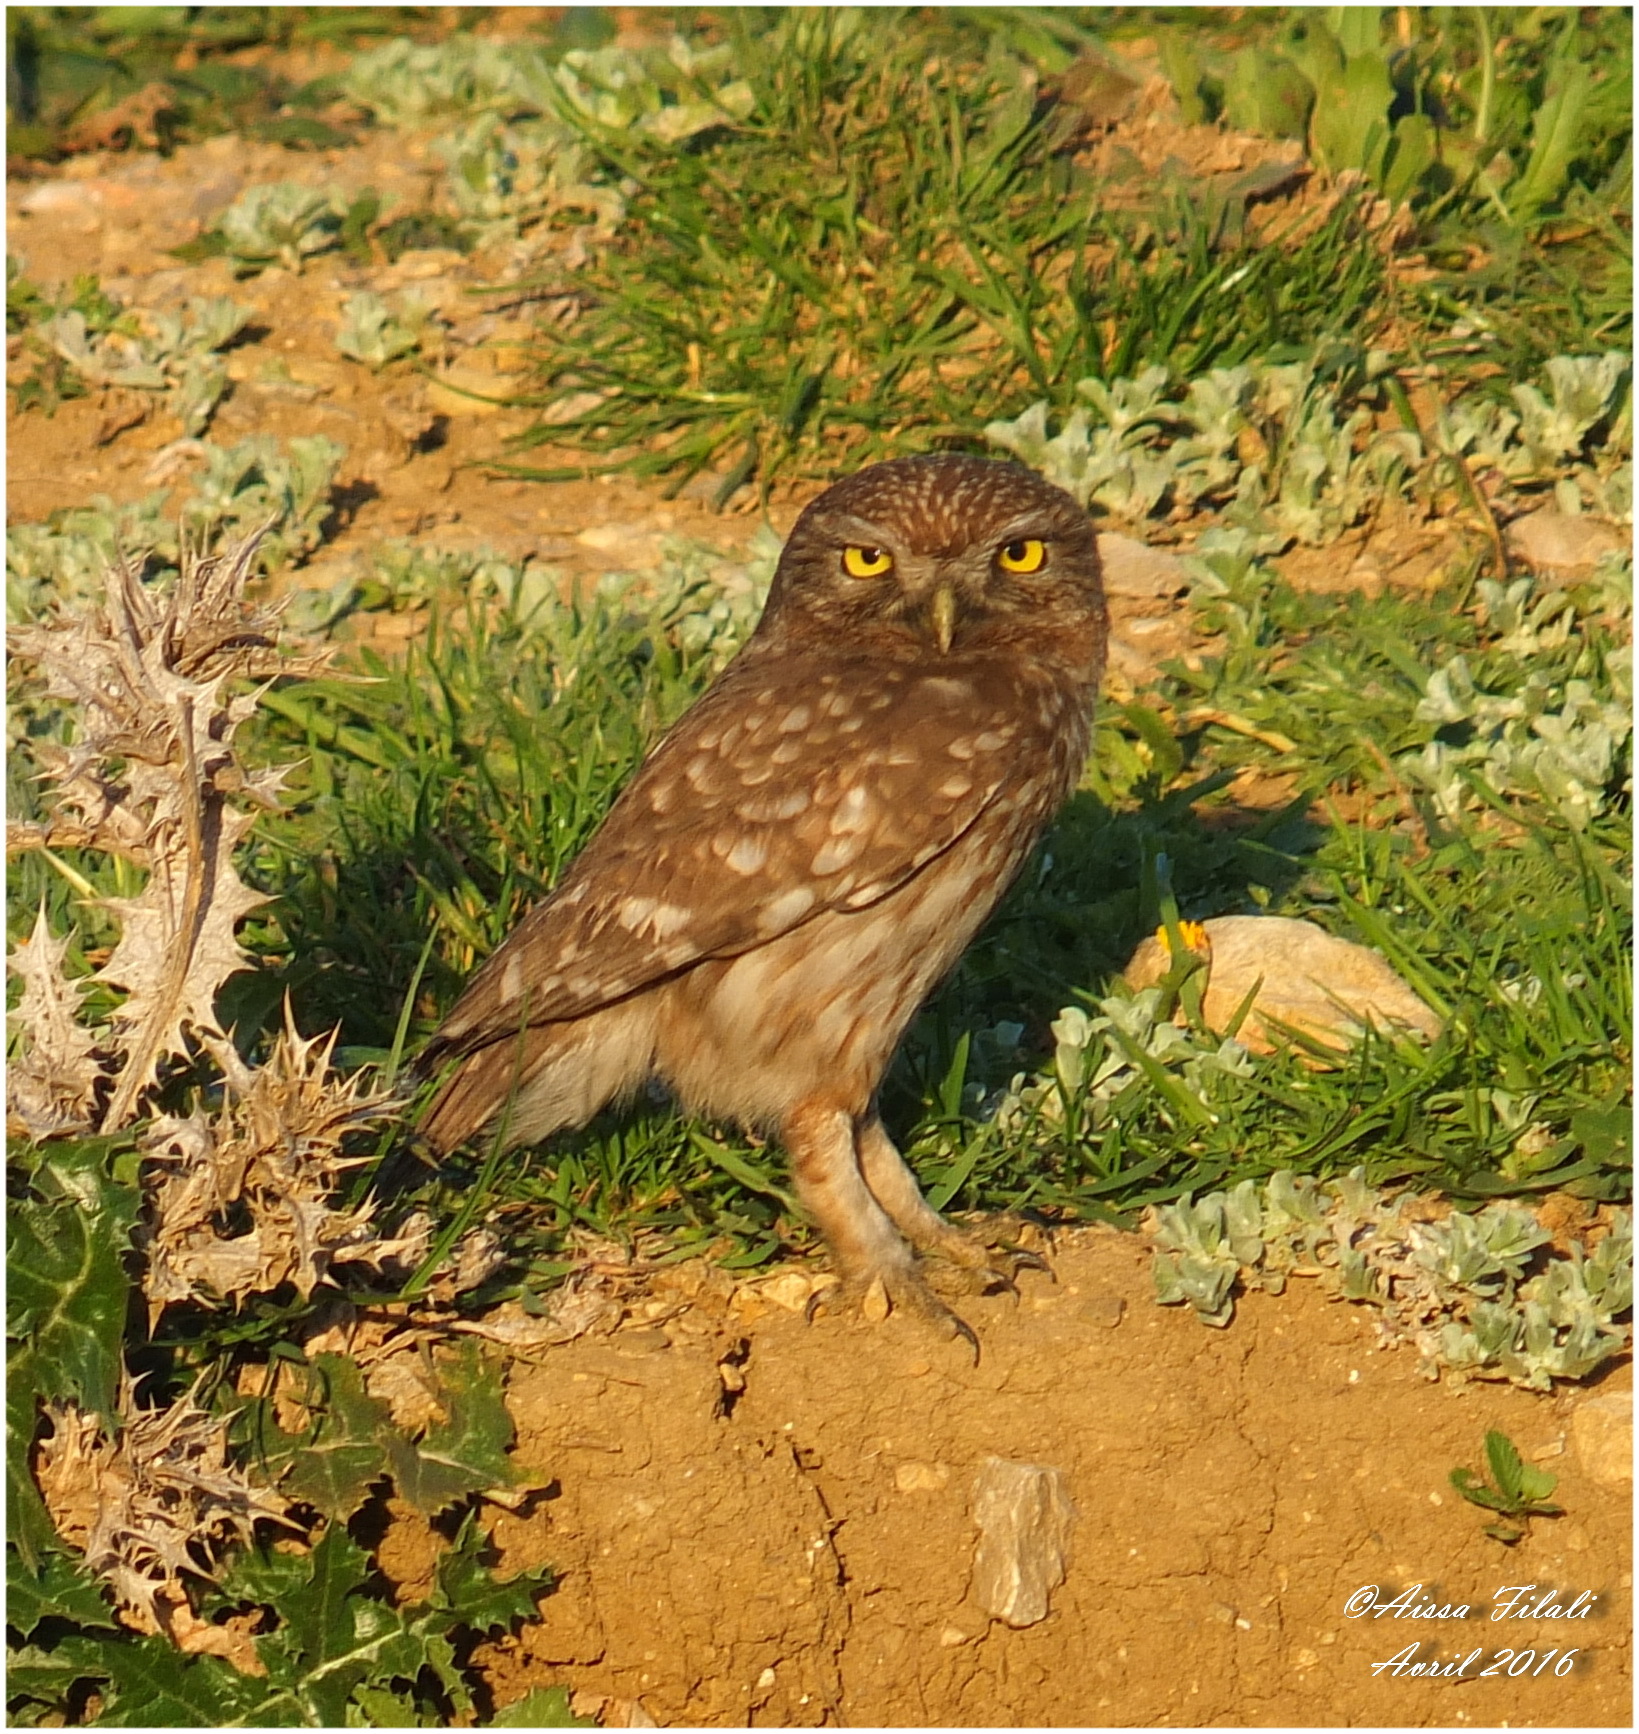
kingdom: Animalia
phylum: Chordata
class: Aves
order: Strigiformes
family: Strigidae
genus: Athene
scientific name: Athene noctua
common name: Little owl
